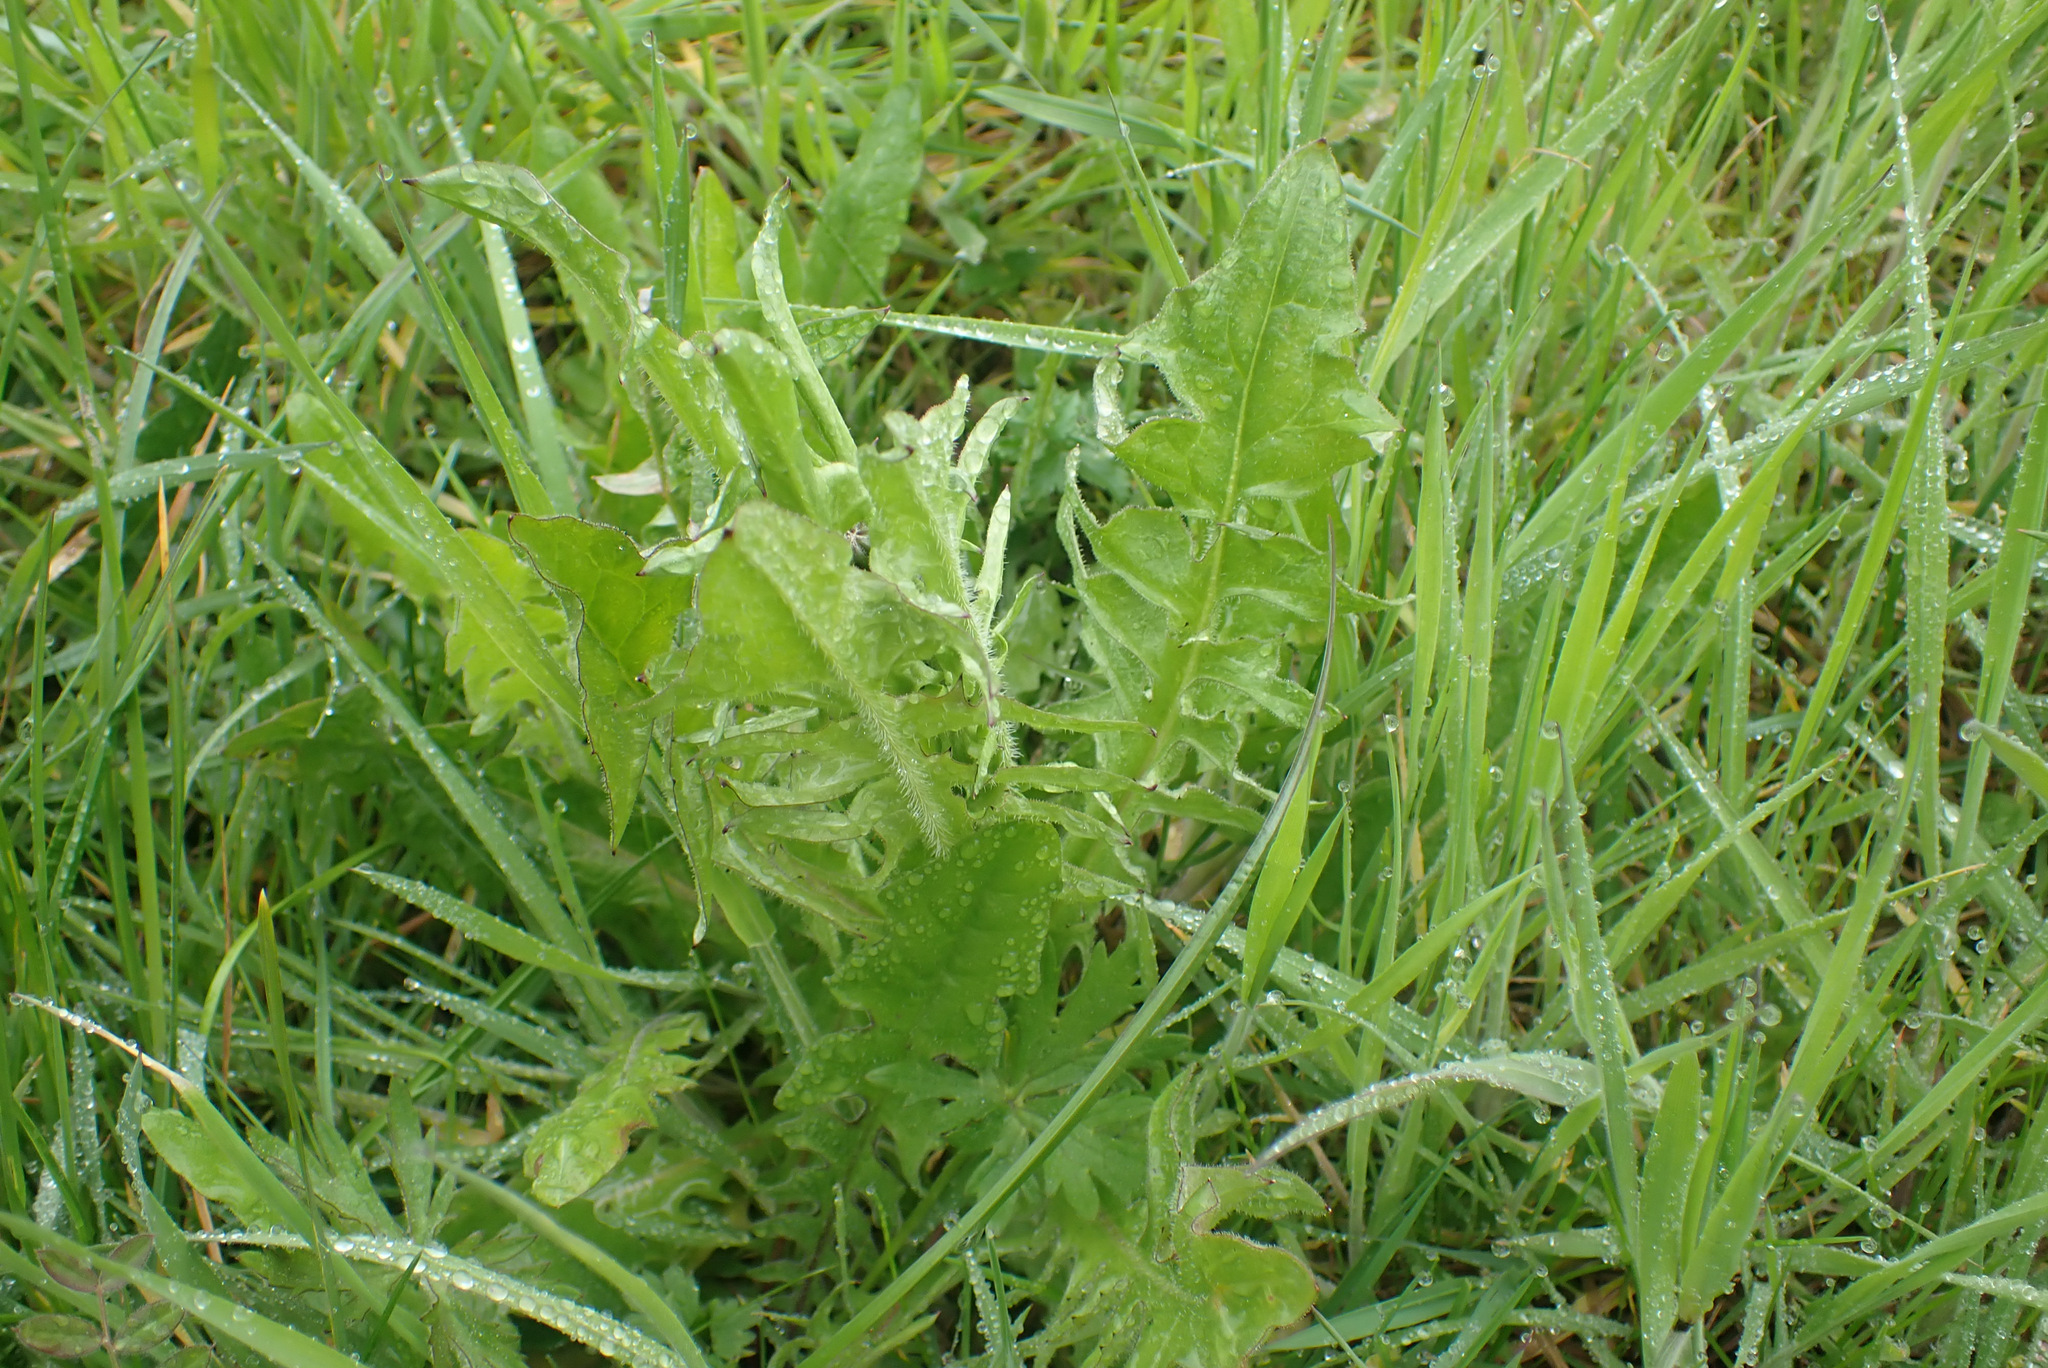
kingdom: Plantae
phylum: Tracheophyta
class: Magnoliopsida
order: Asterales
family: Asteraceae
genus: Crepis
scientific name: Crepis biennis
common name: Rough hawk's-beard
